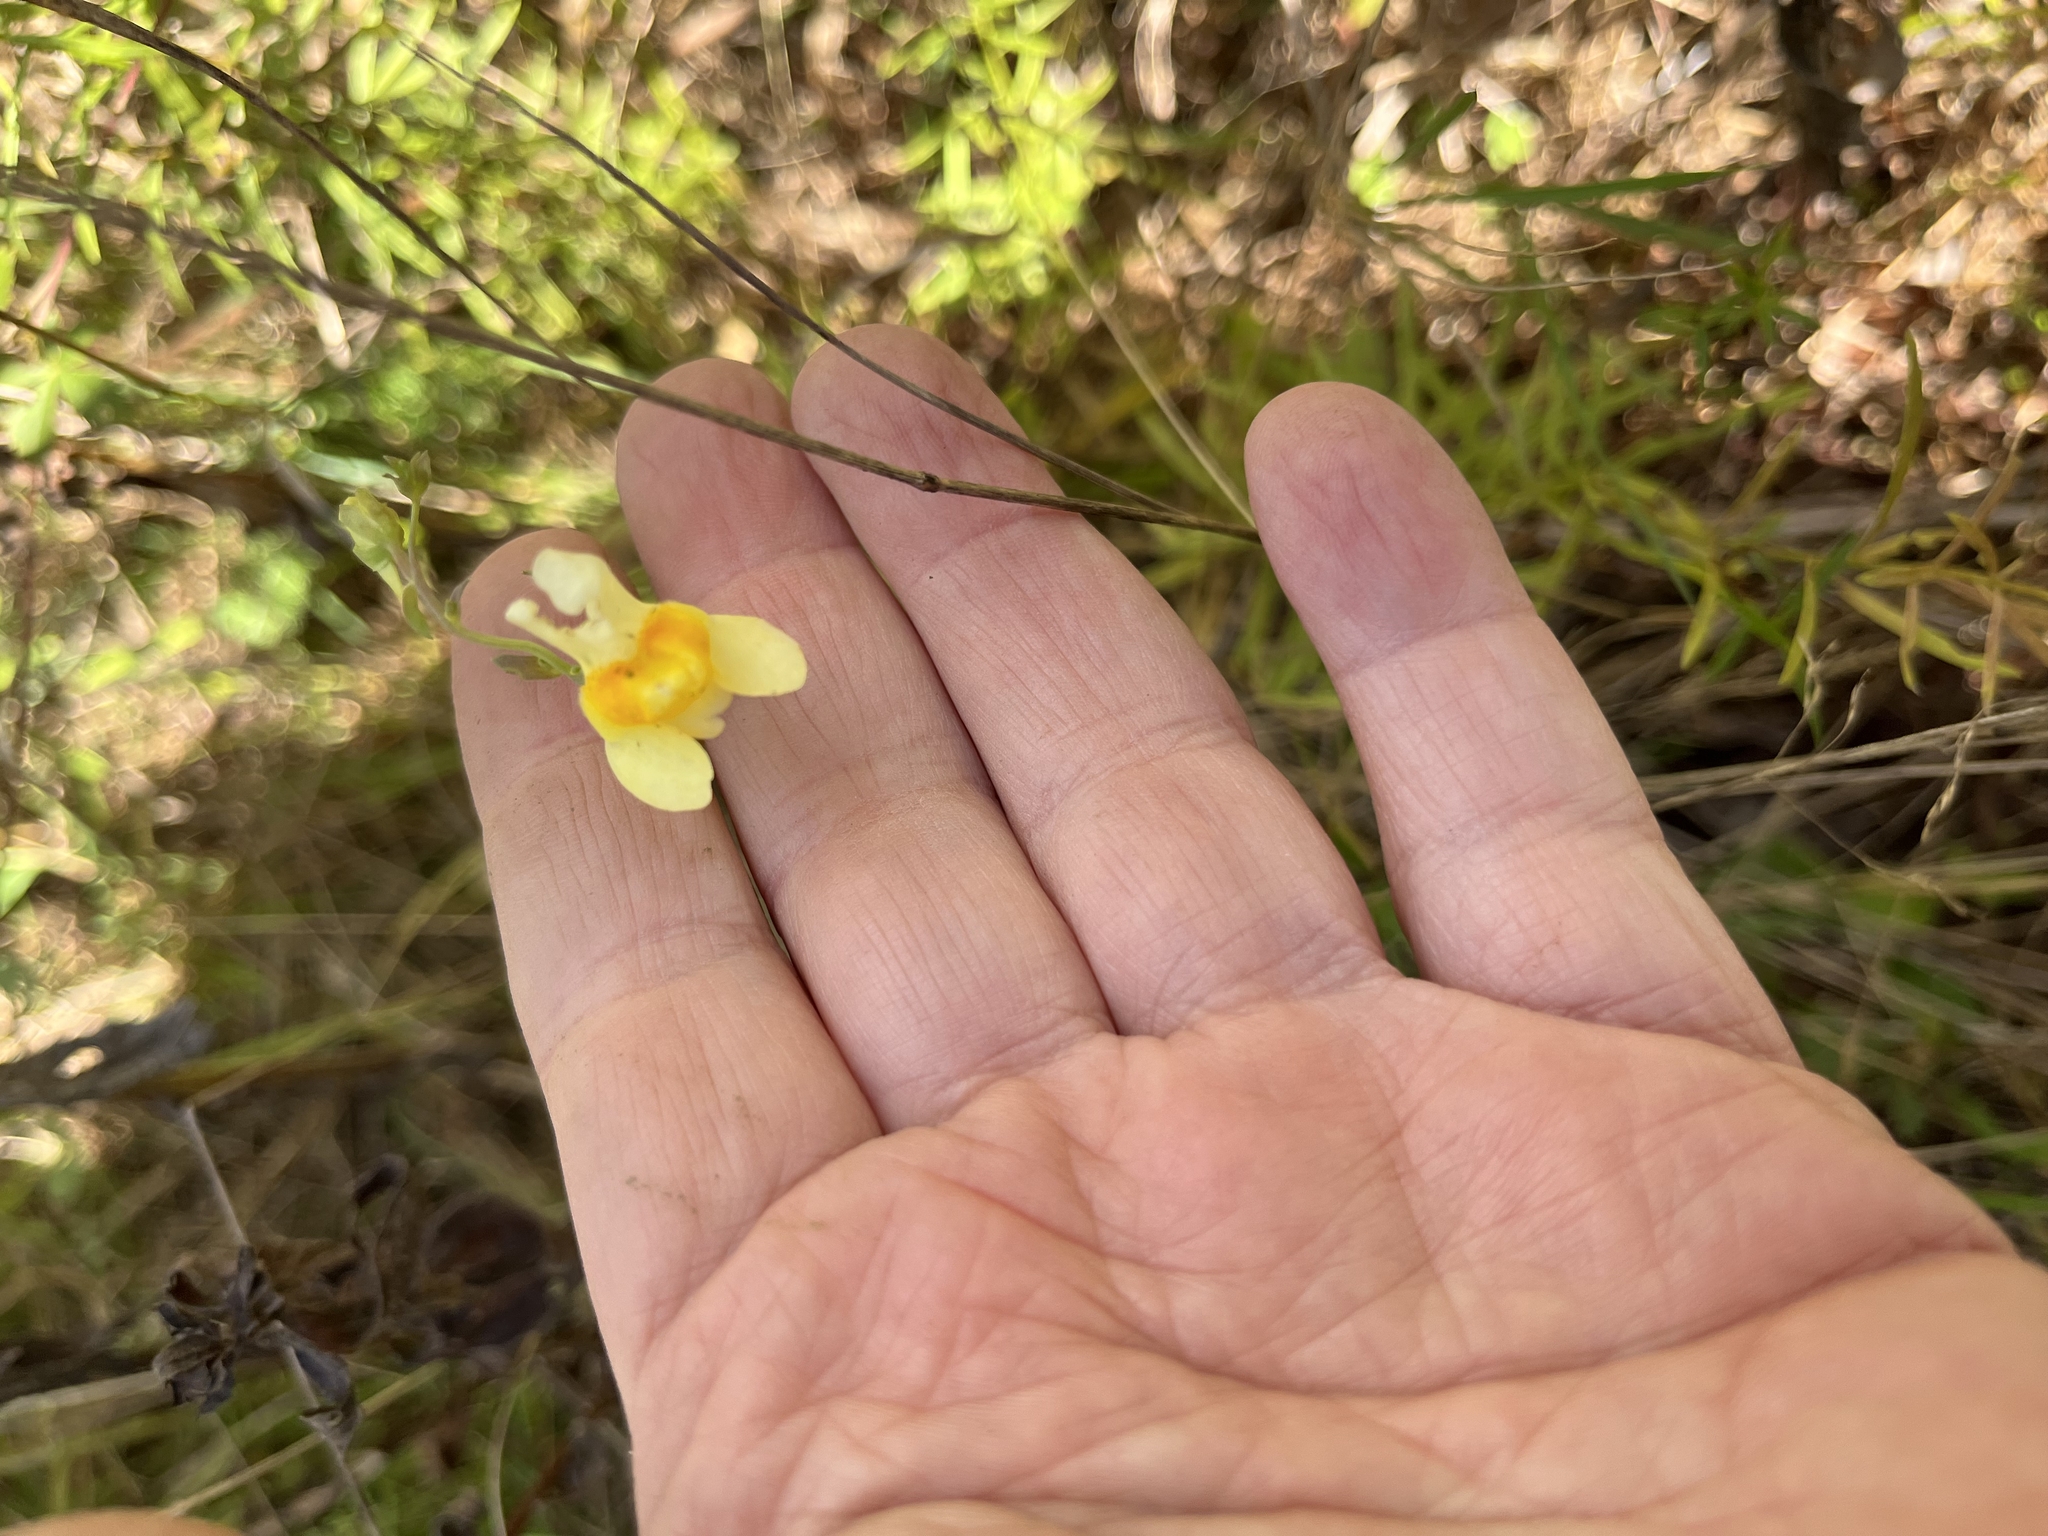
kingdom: Plantae
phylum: Tracheophyta
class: Magnoliopsida
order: Lamiales
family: Plantaginaceae
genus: Linaria
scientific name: Linaria vulgaris
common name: Butter and eggs
